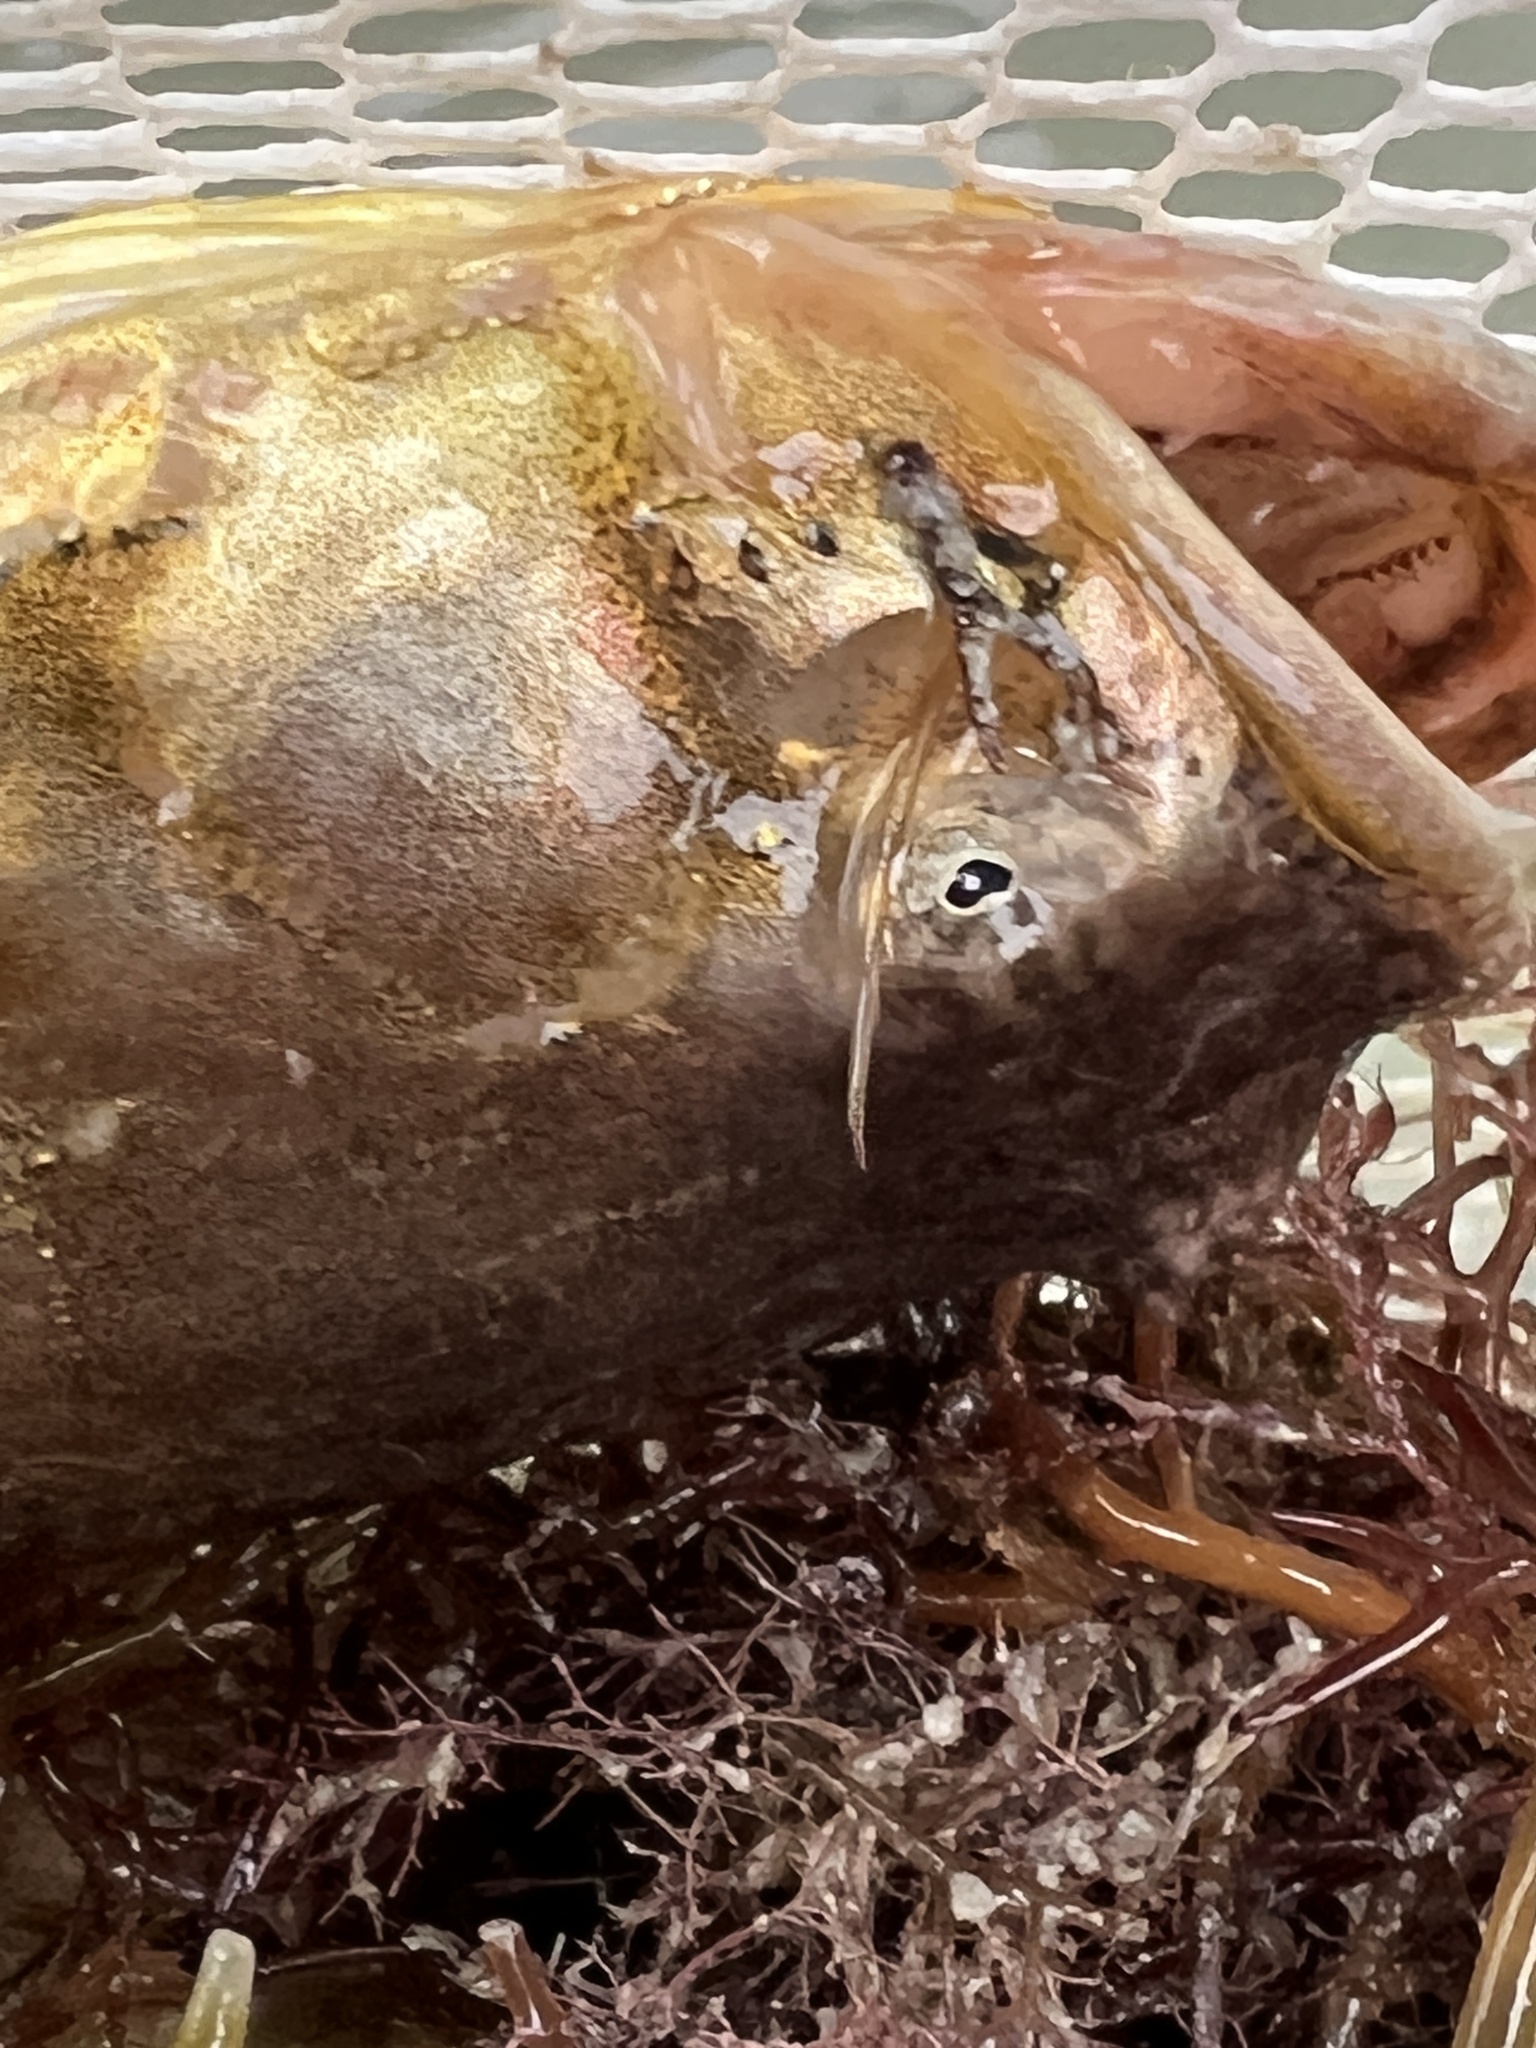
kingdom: Animalia
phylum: Chordata
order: Batrachoidiformes
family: Batrachoididae
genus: Porichthys
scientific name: Porichthys plectrodon
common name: Atlantic midshipman
